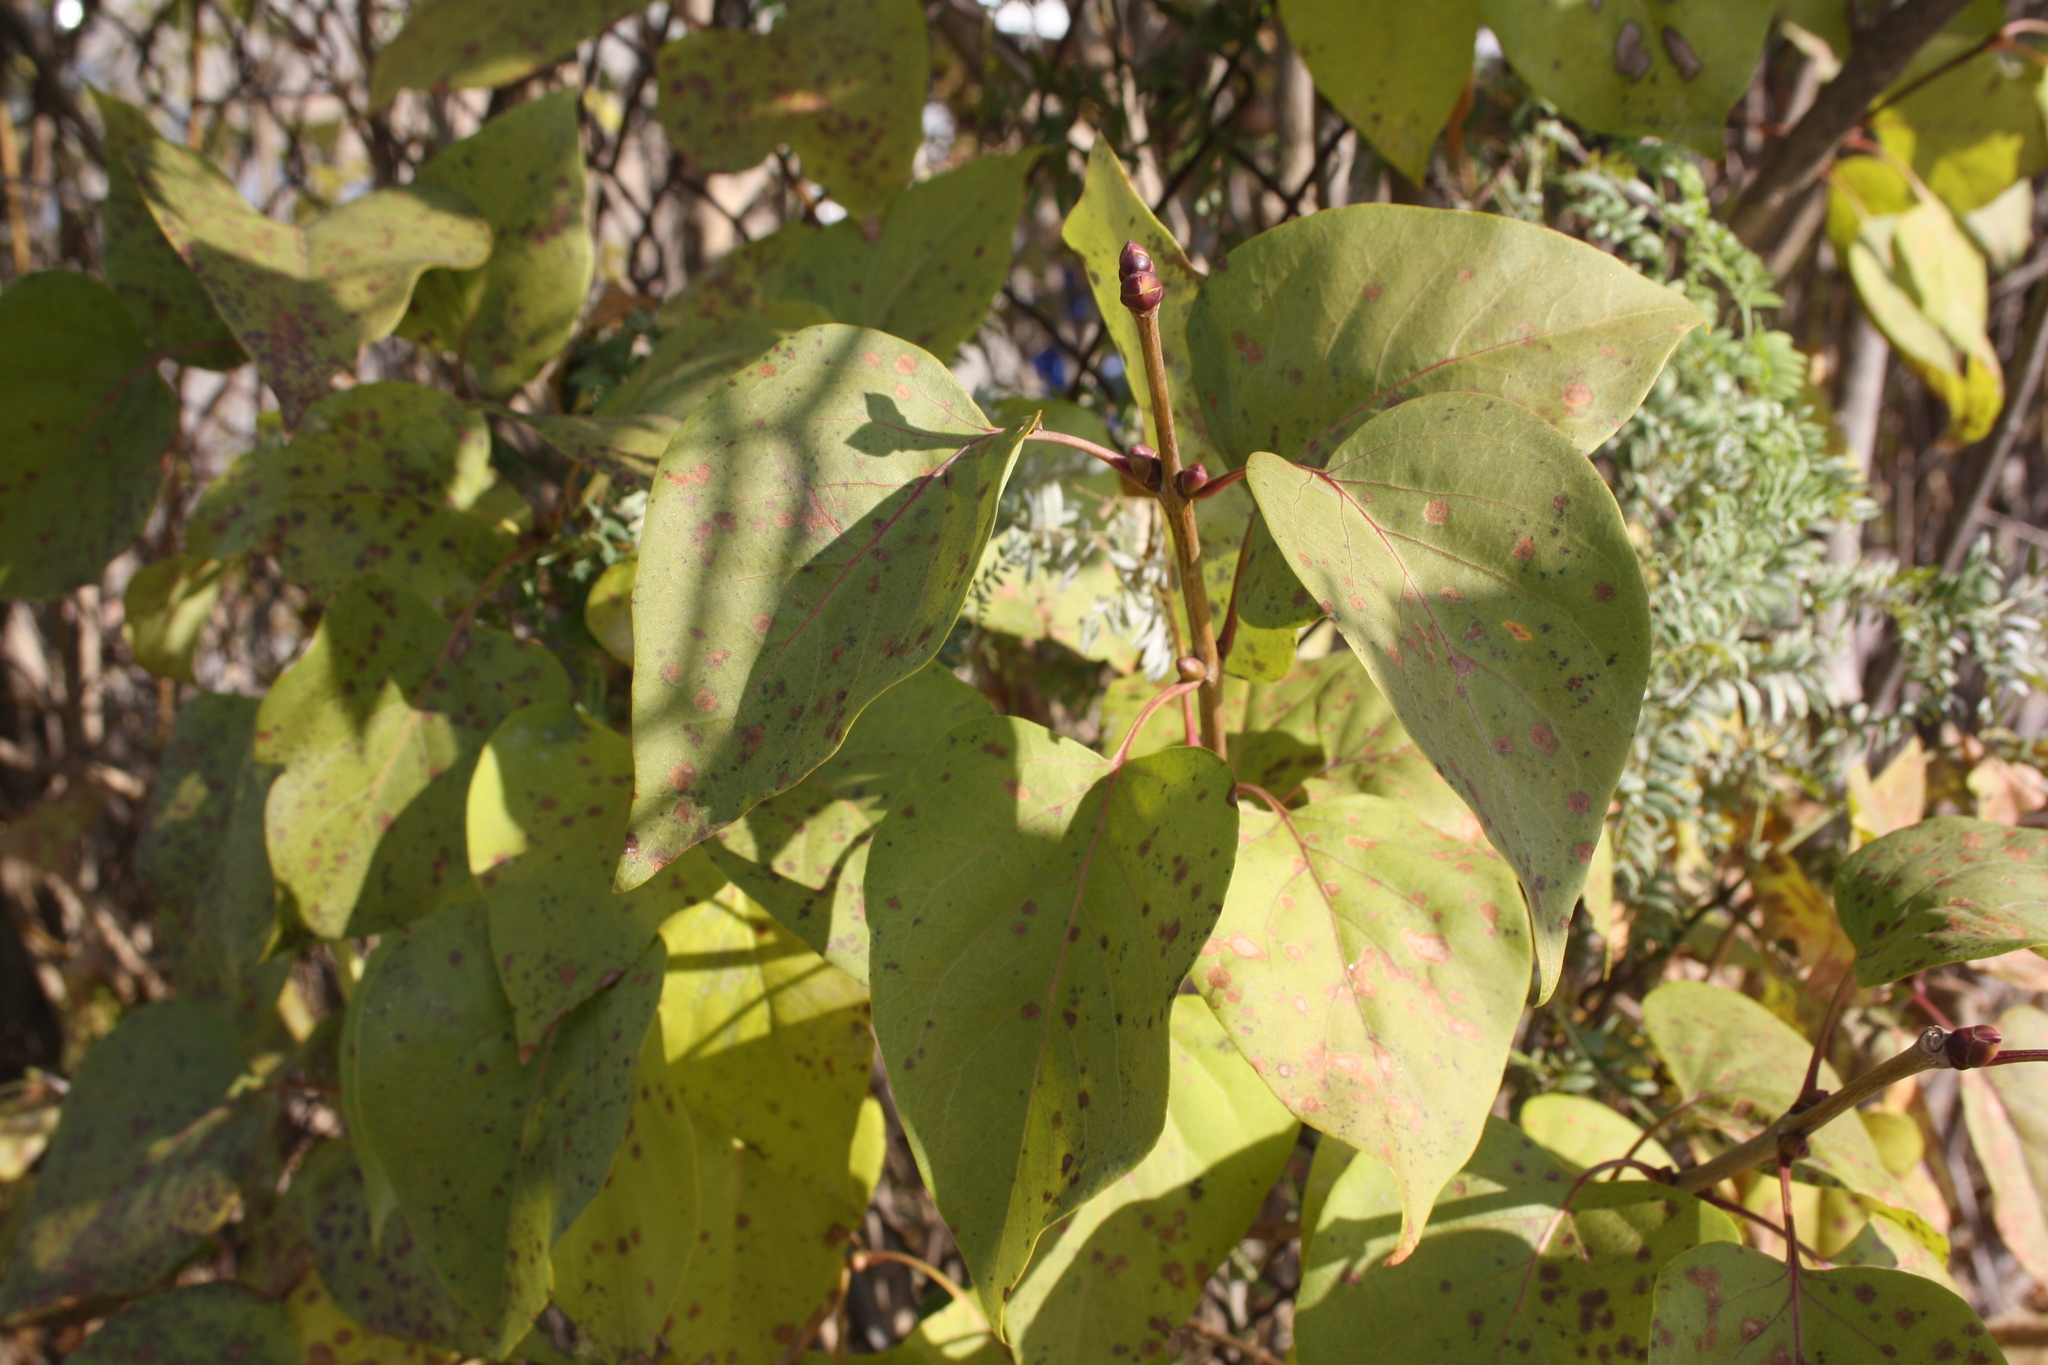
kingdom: Plantae
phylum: Tracheophyta
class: Magnoliopsida
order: Lamiales
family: Oleaceae
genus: Syringa
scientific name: Syringa vulgaris
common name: Common lilac
